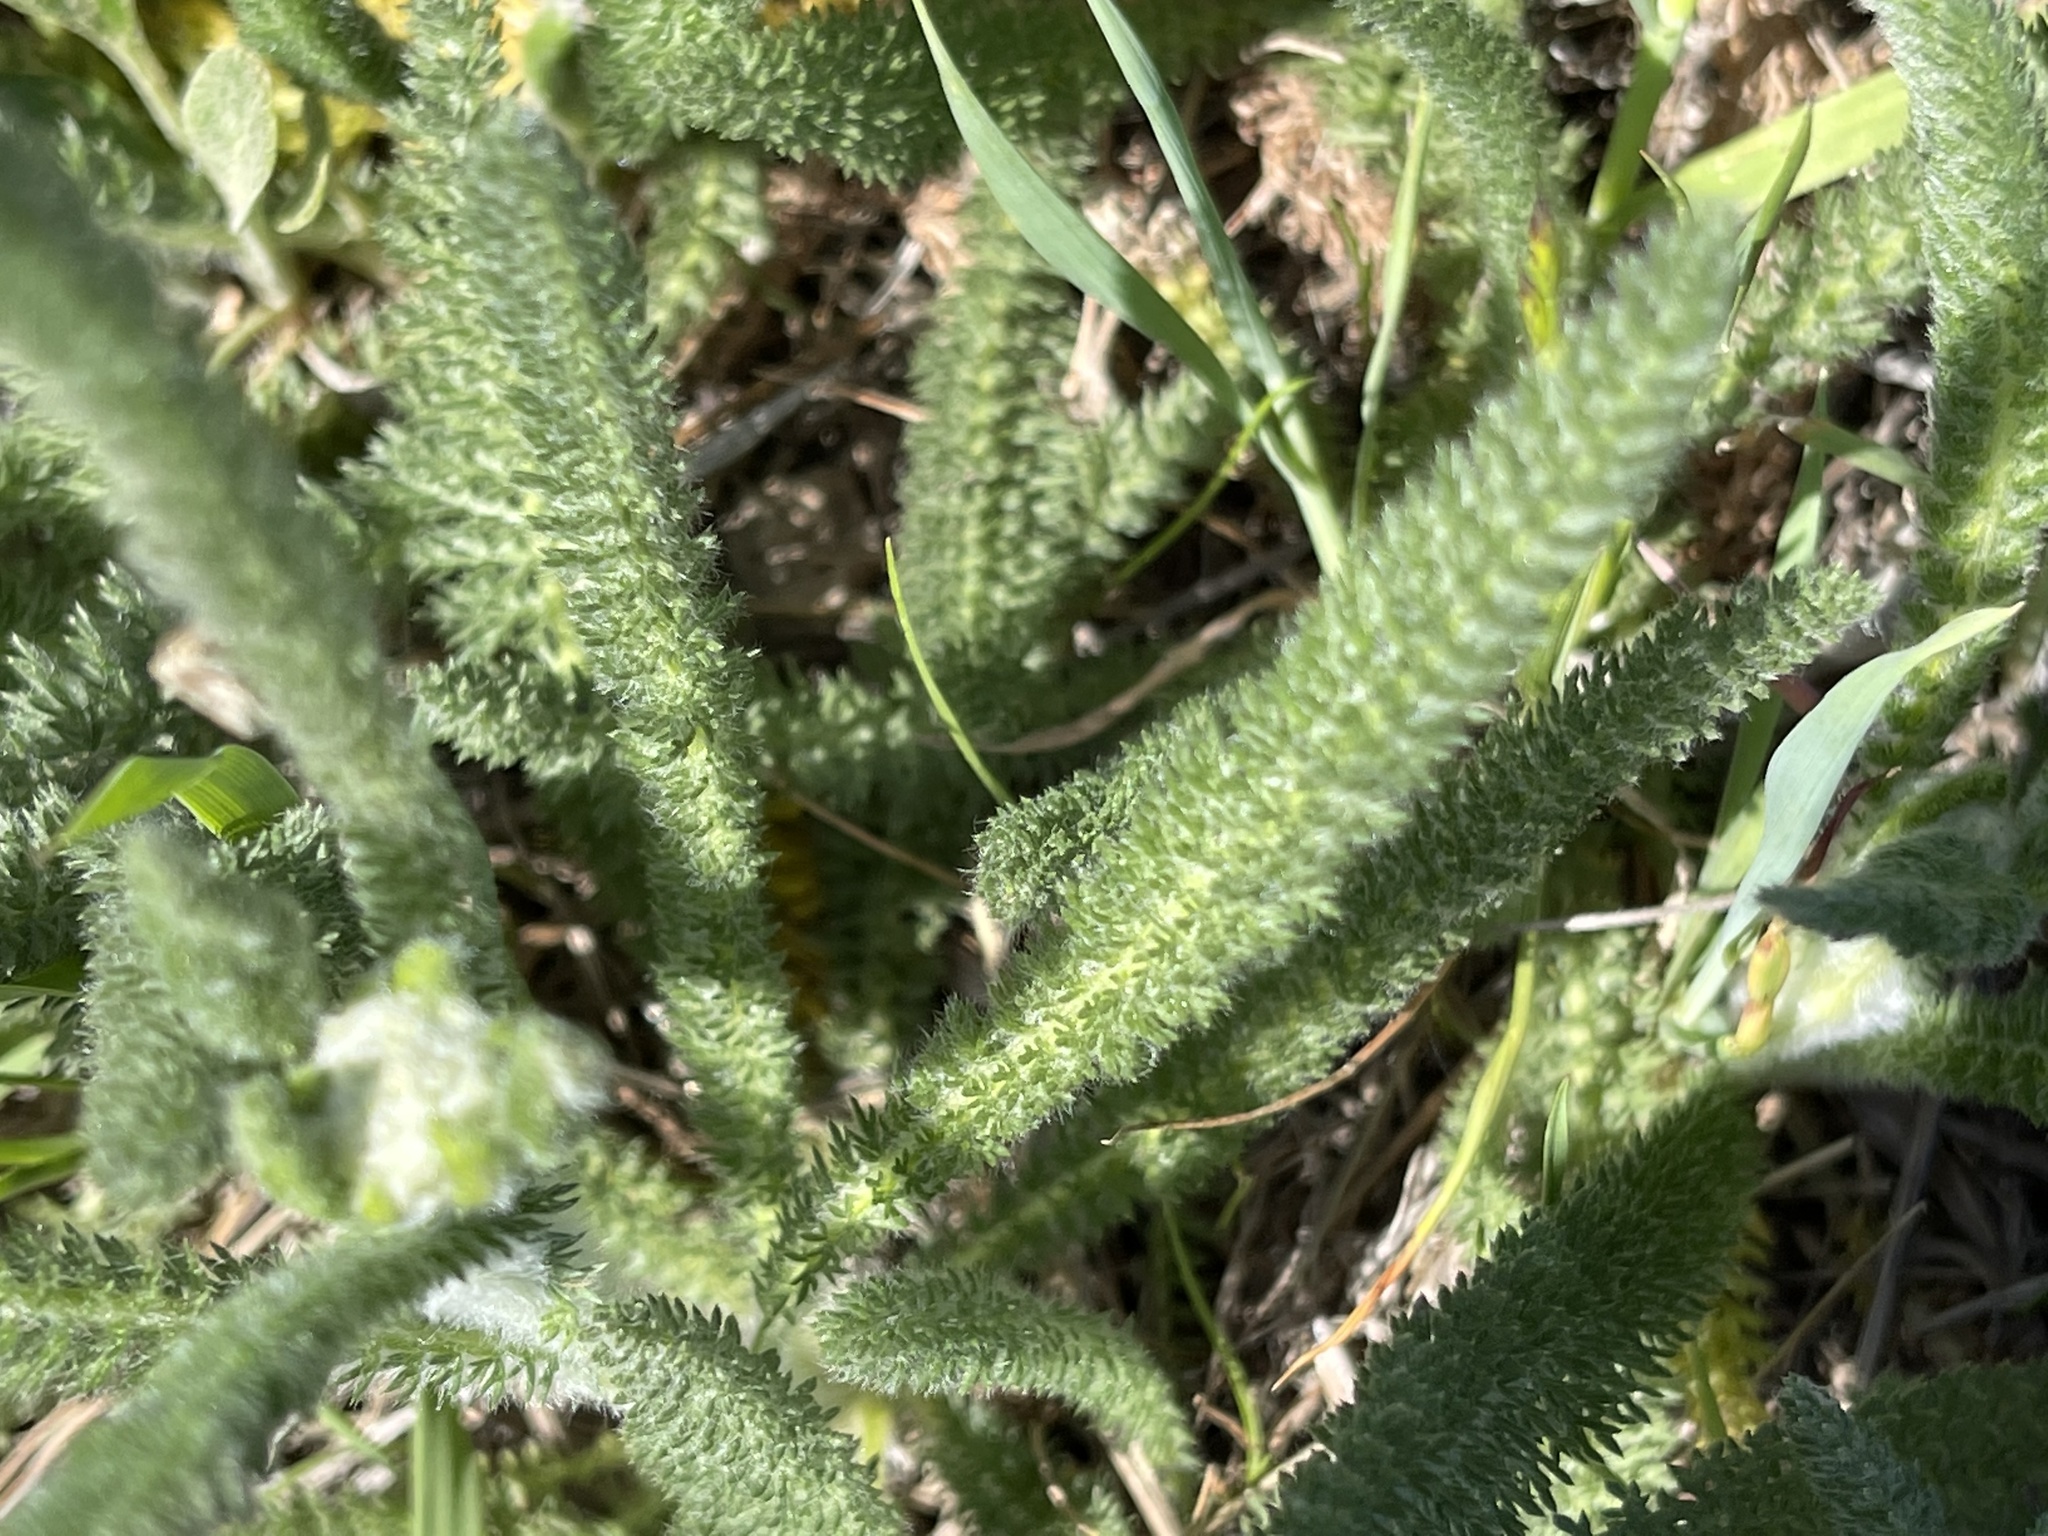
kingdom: Plantae
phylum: Tracheophyta
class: Magnoliopsida
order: Asterales
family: Asteraceae
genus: Achillea
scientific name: Achillea millefolium
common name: Yarrow
